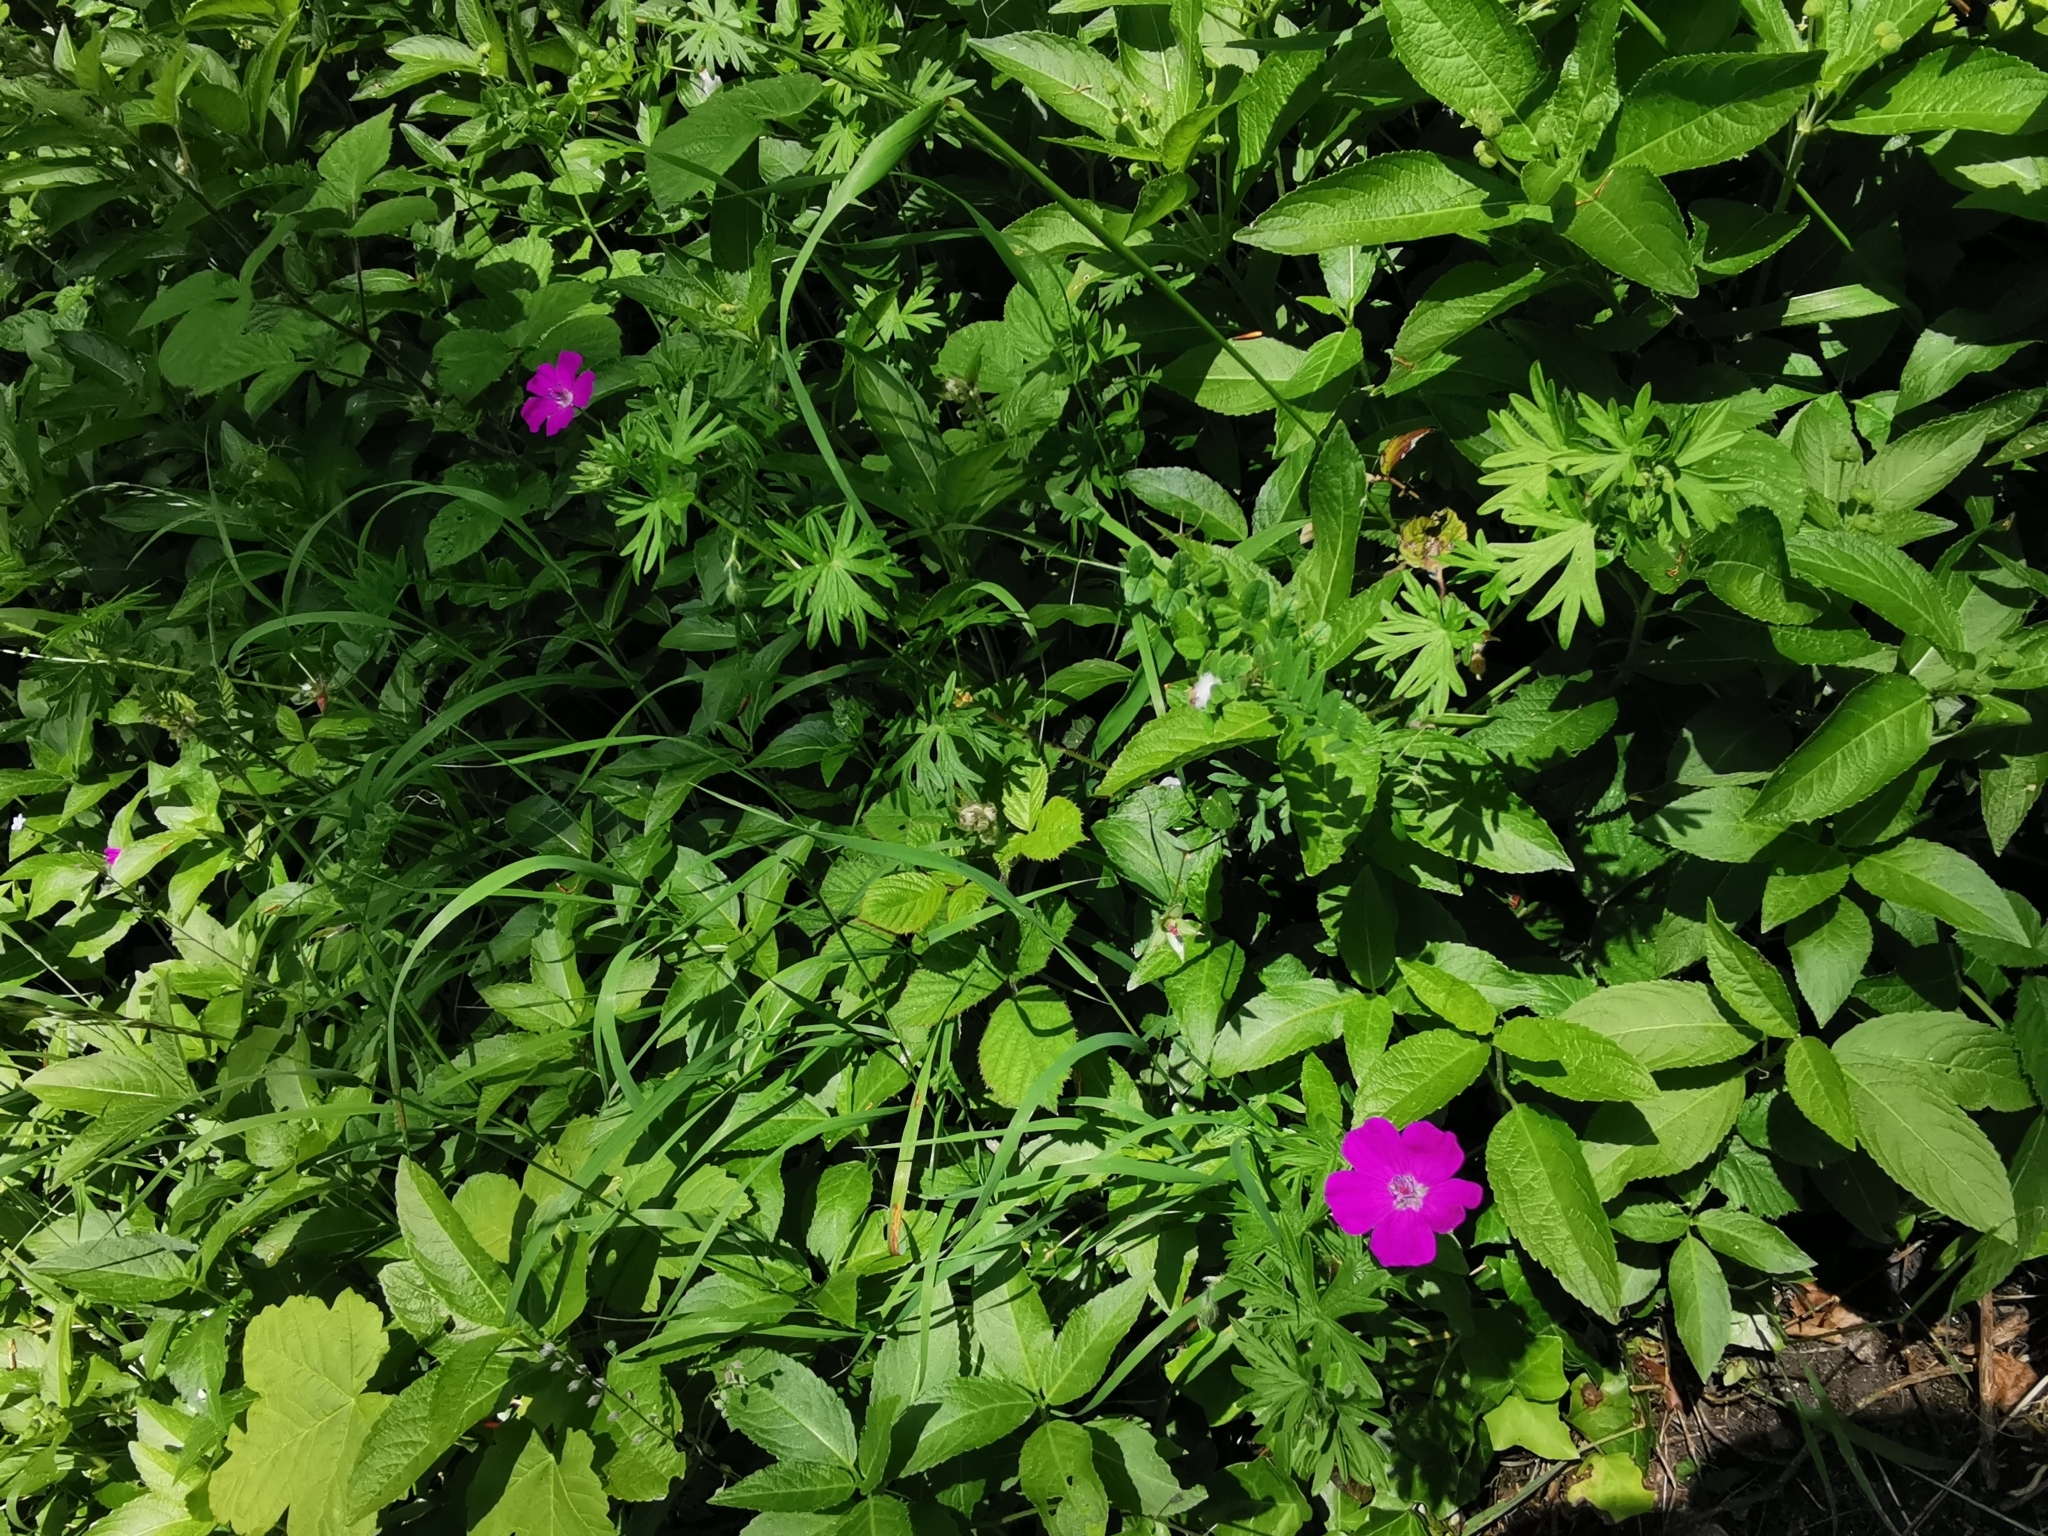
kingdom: Plantae
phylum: Tracheophyta
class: Magnoliopsida
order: Geraniales
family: Geraniaceae
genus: Geranium
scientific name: Geranium sanguineum
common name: Bloody crane's-bill
